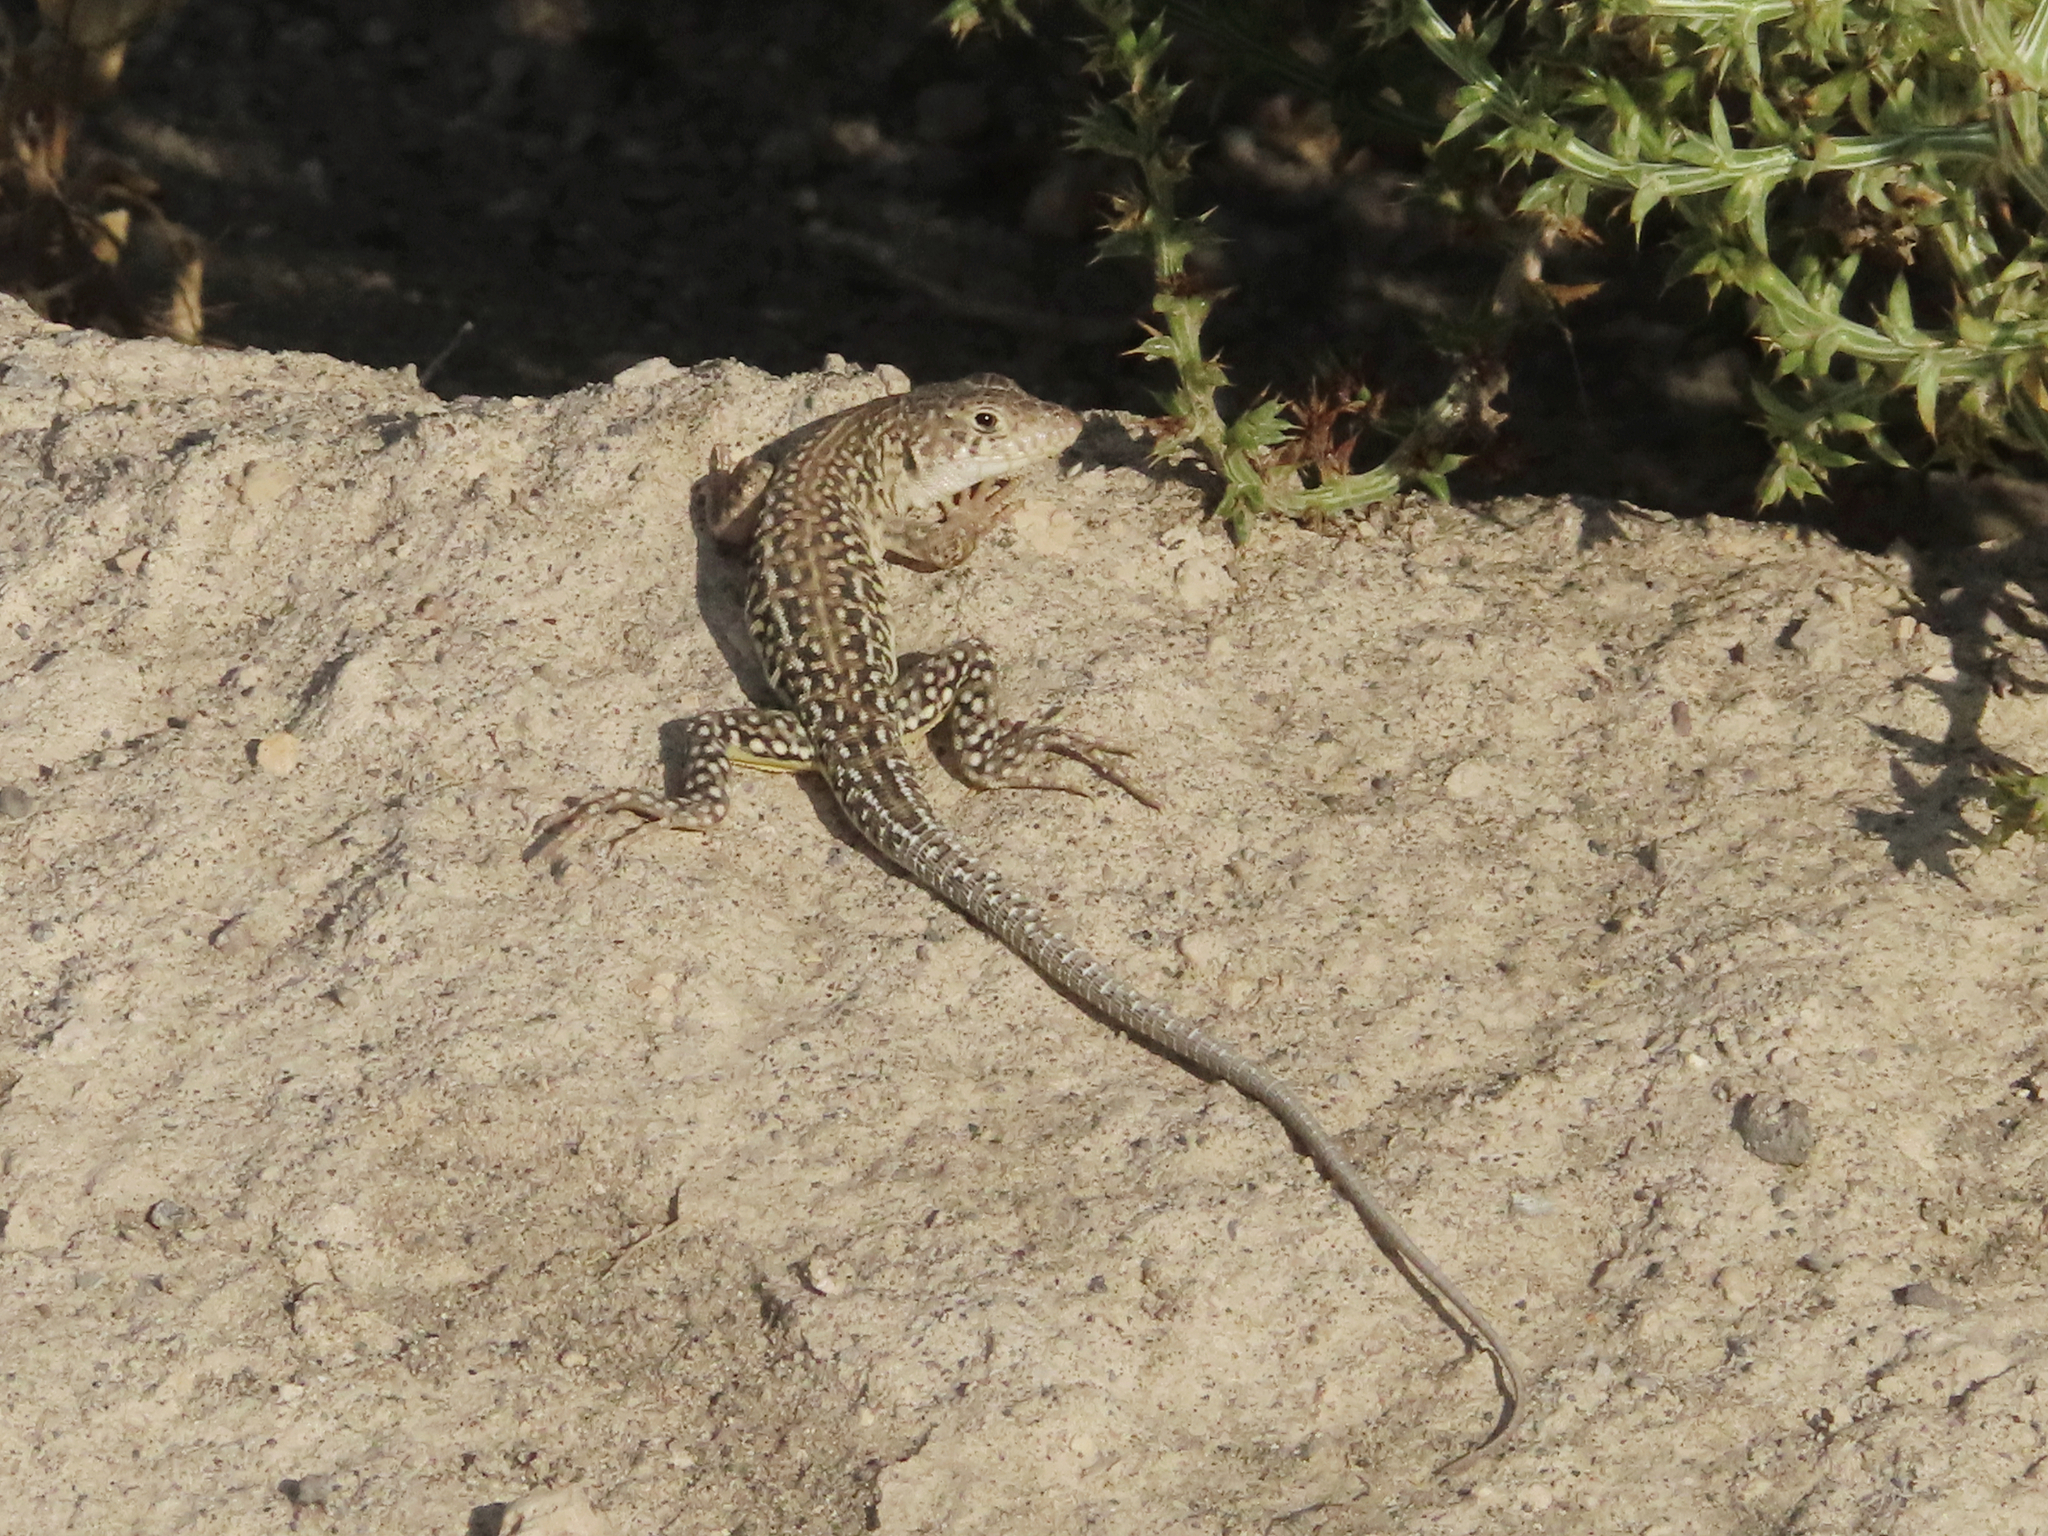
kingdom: Animalia
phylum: Chordata
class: Squamata
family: Lacertidae
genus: Eremias
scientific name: Eremias strauchi
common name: Strauch's racerunner
